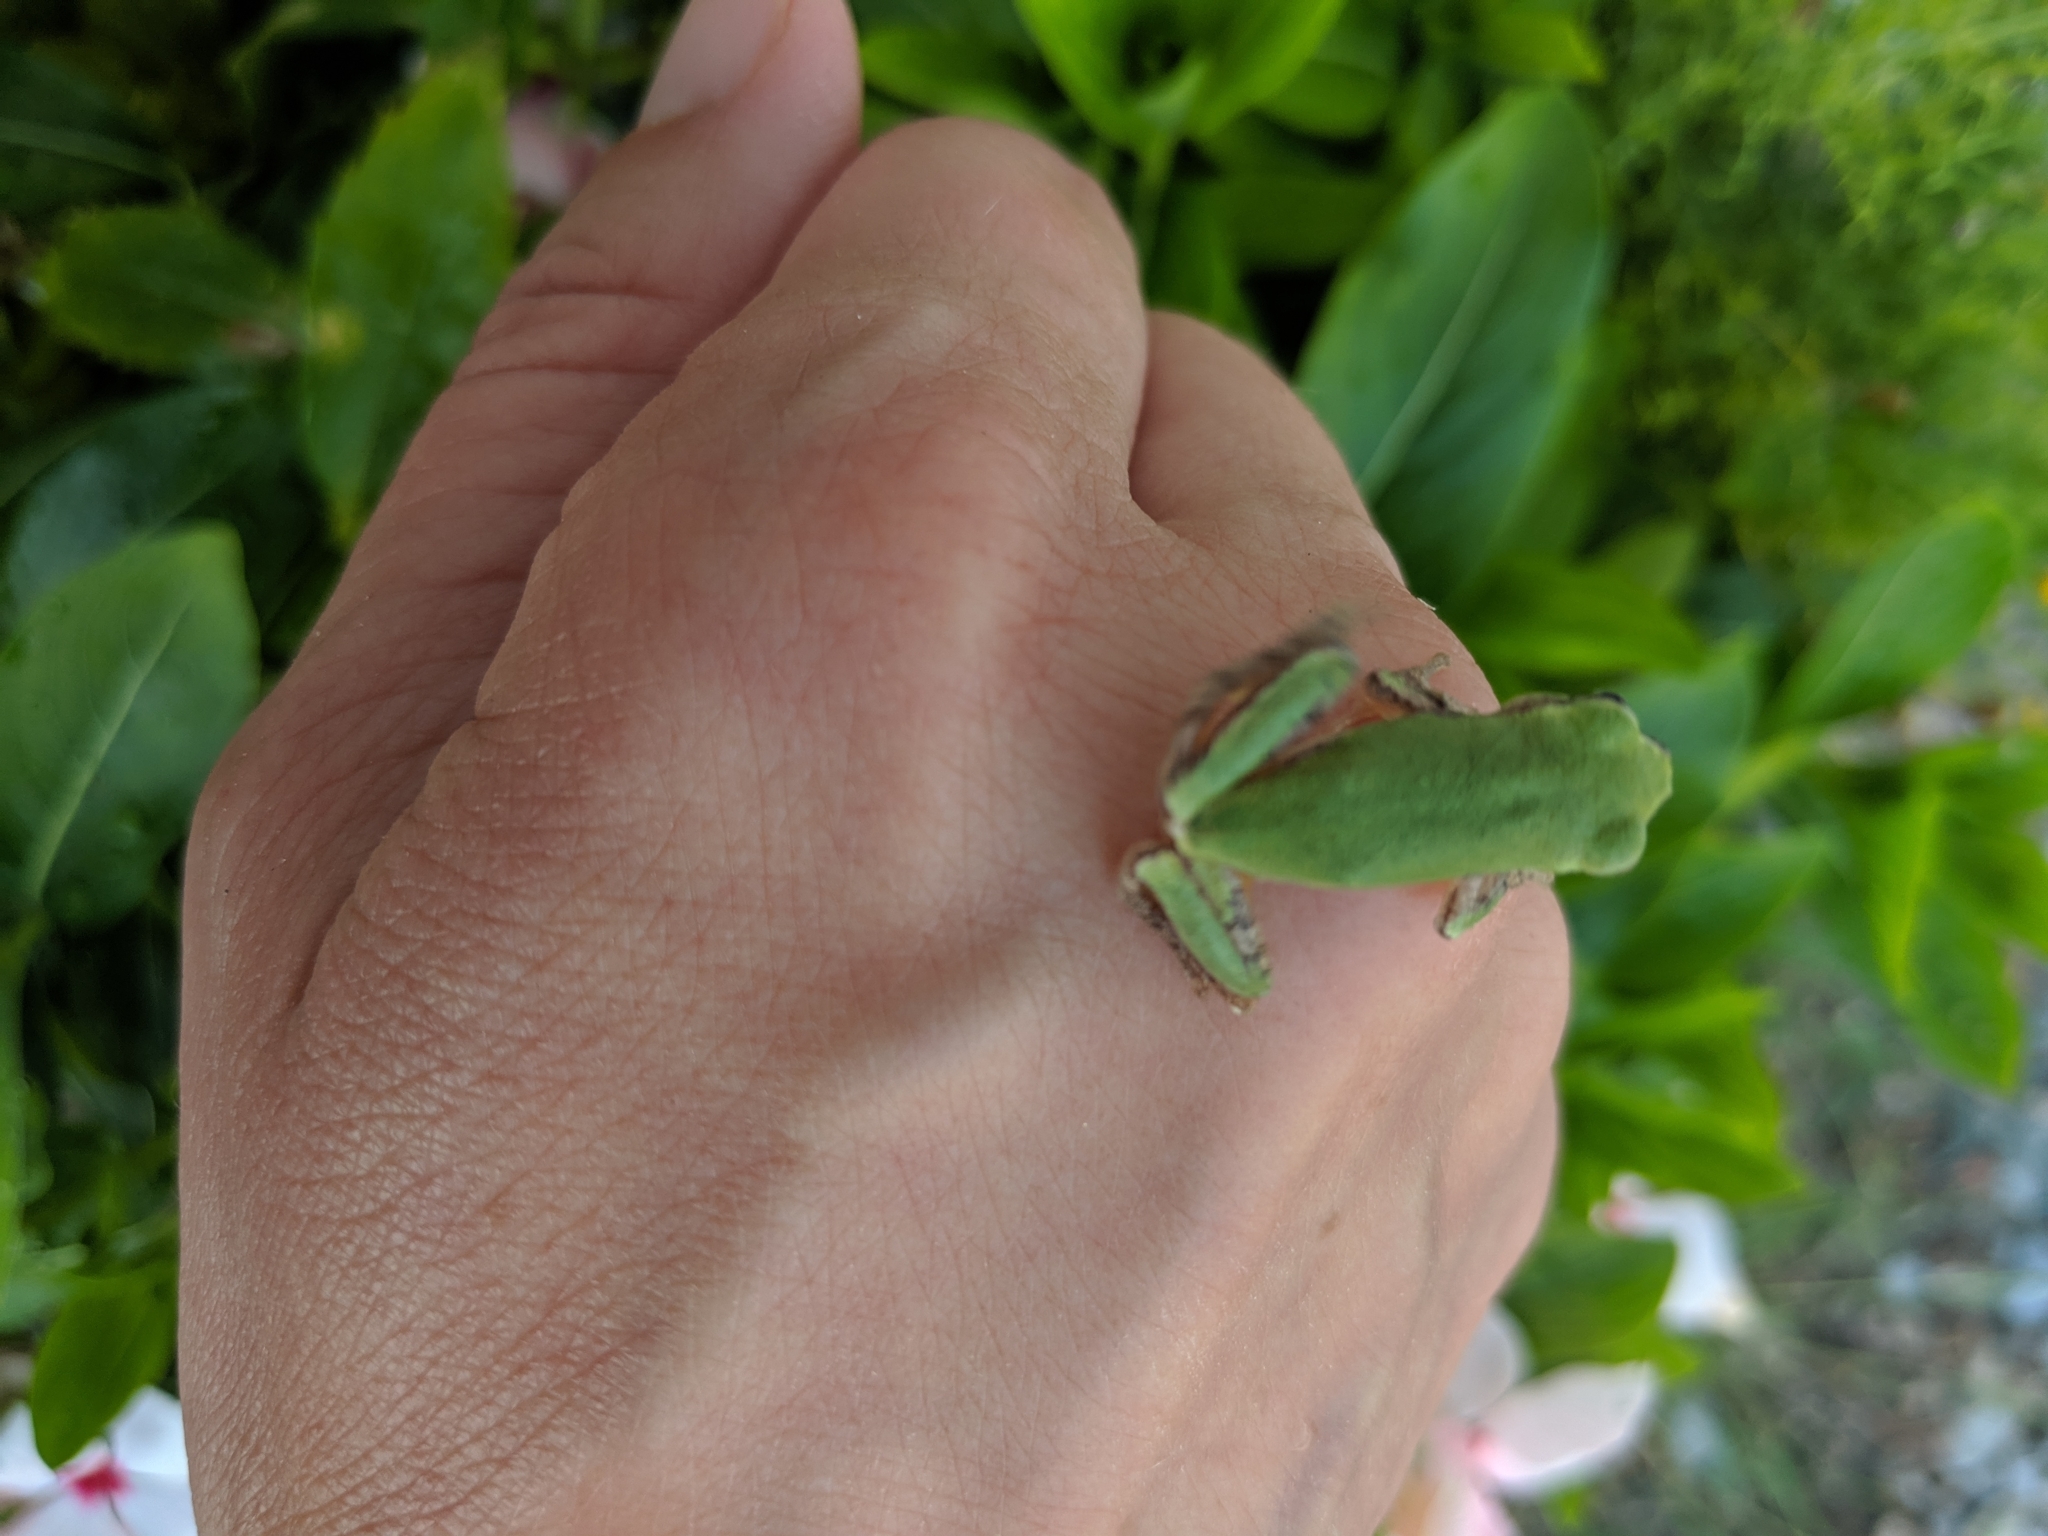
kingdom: Animalia
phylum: Chordata
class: Amphibia
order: Anura
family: Hylidae
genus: Dryophytes
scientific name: Dryophytes chrysoscelis
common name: Cope's gray treefrog
